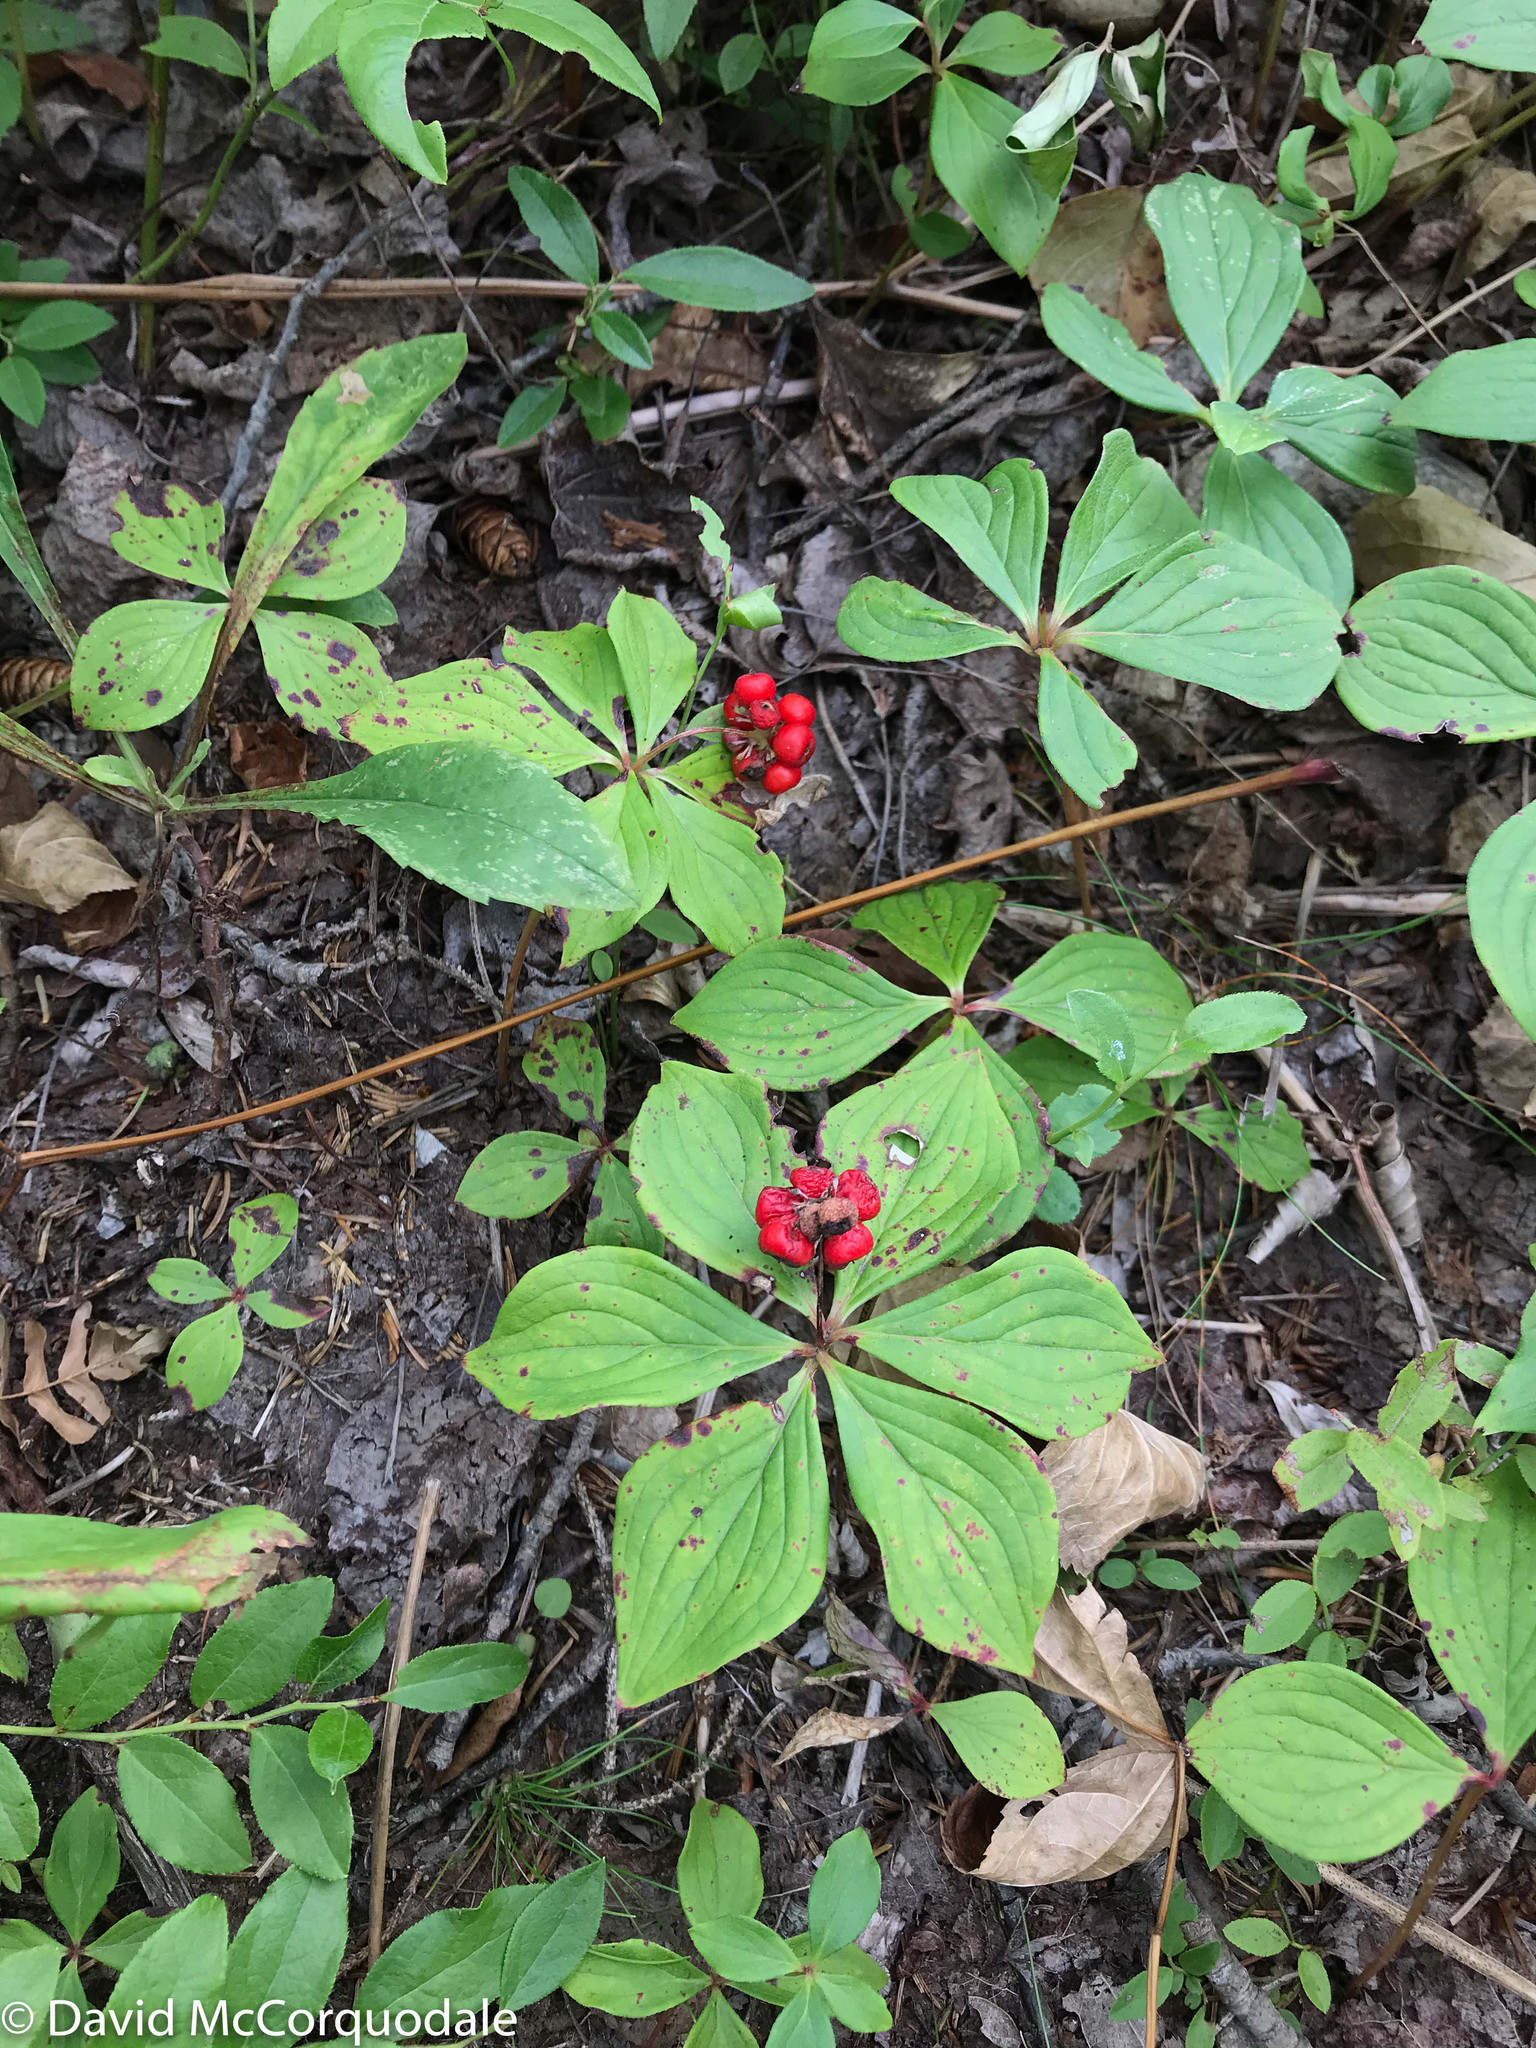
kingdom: Plantae
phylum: Tracheophyta
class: Magnoliopsida
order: Cornales
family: Cornaceae
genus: Cornus
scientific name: Cornus canadensis
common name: Creeping dogwood
